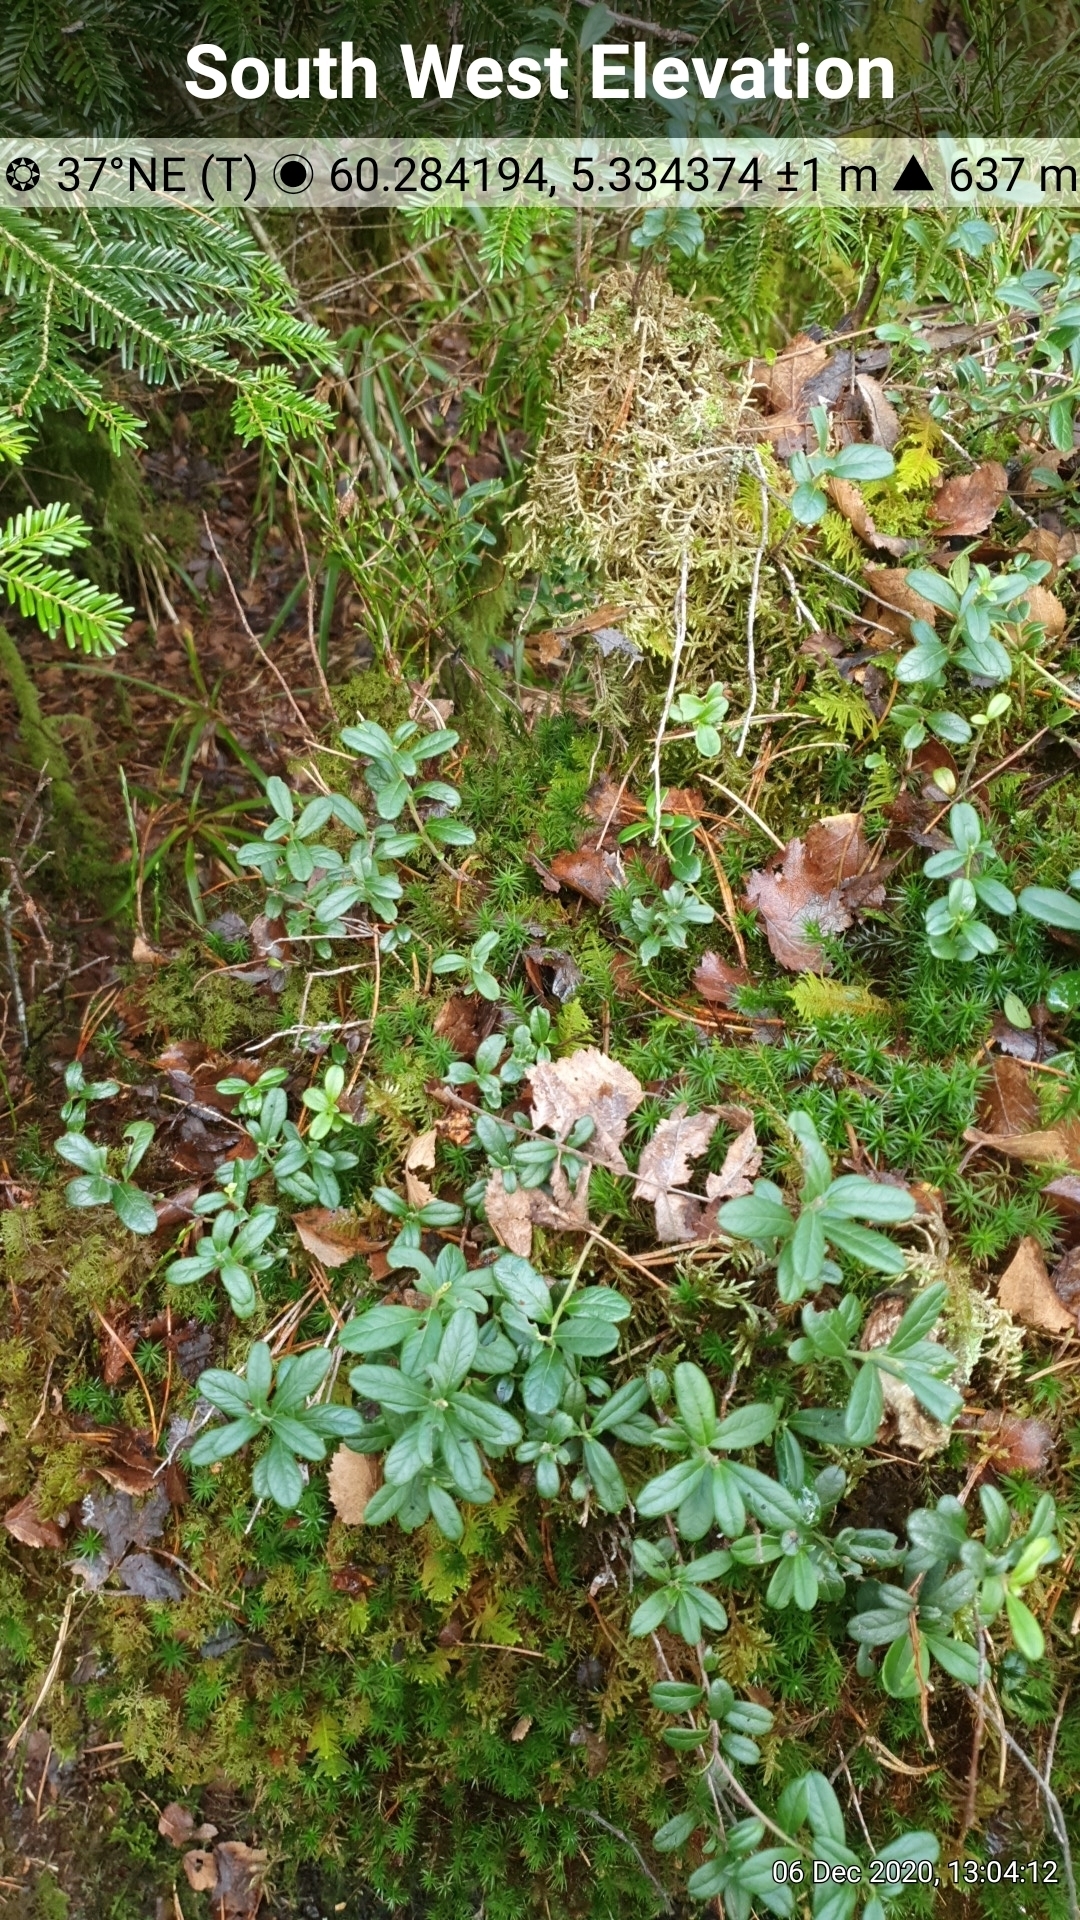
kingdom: Plantae
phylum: Tracheophyta
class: Magnoliopsida
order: Ericales
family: Ericaceae
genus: Vaccinium
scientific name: Vaccinium vitis-idaea
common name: Cowberry
